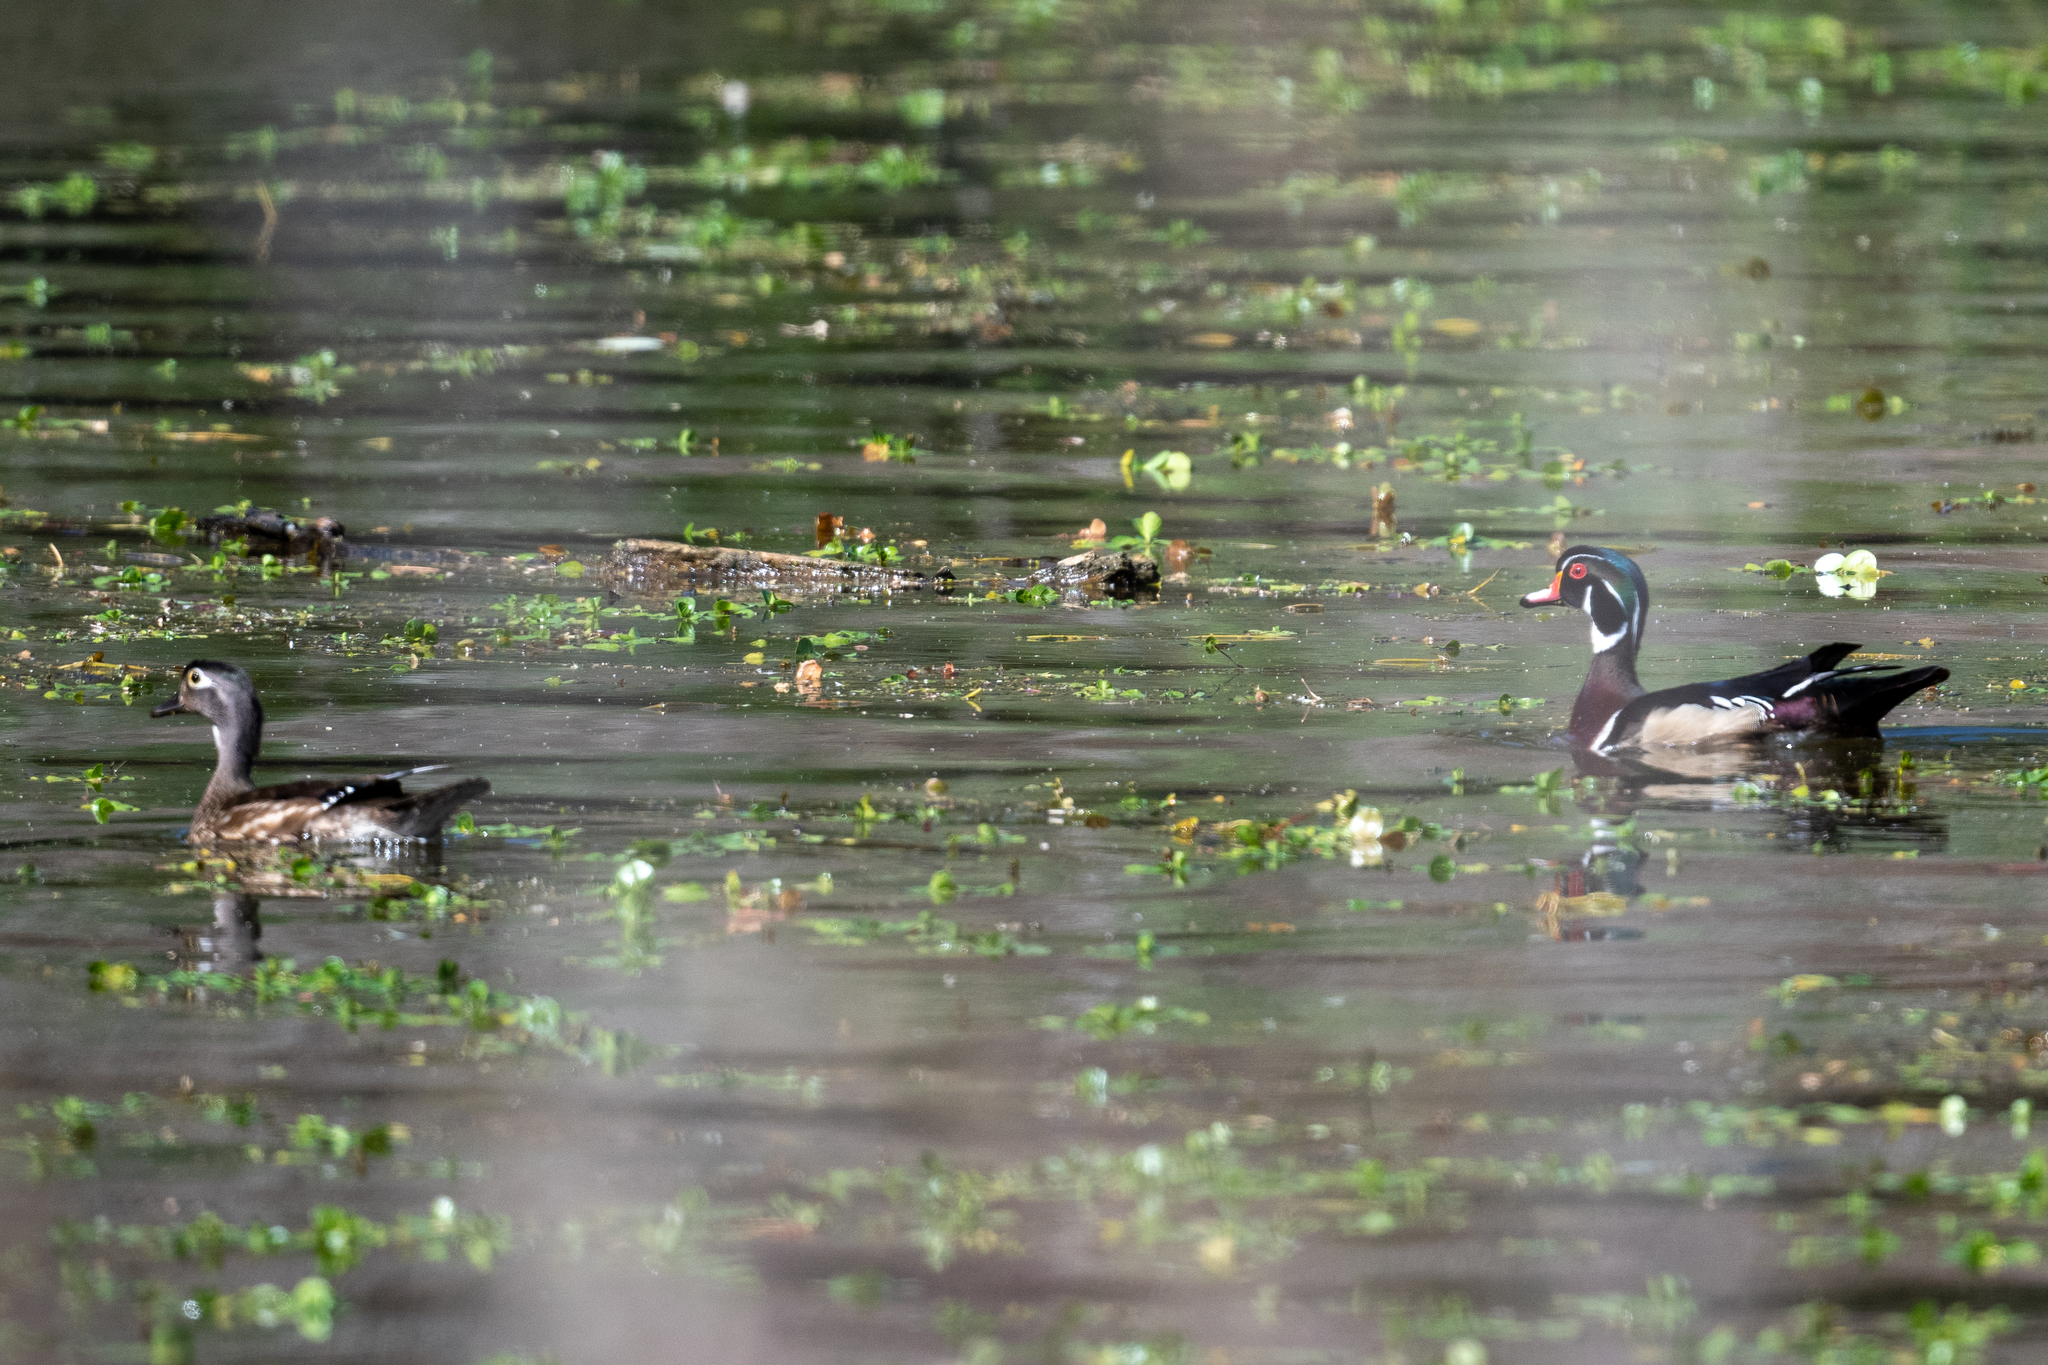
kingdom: Animalia
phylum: Chordata
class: Aves
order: Anseriformes
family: Anatidae
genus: Aix
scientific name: Aix sponsa
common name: Wood duck
